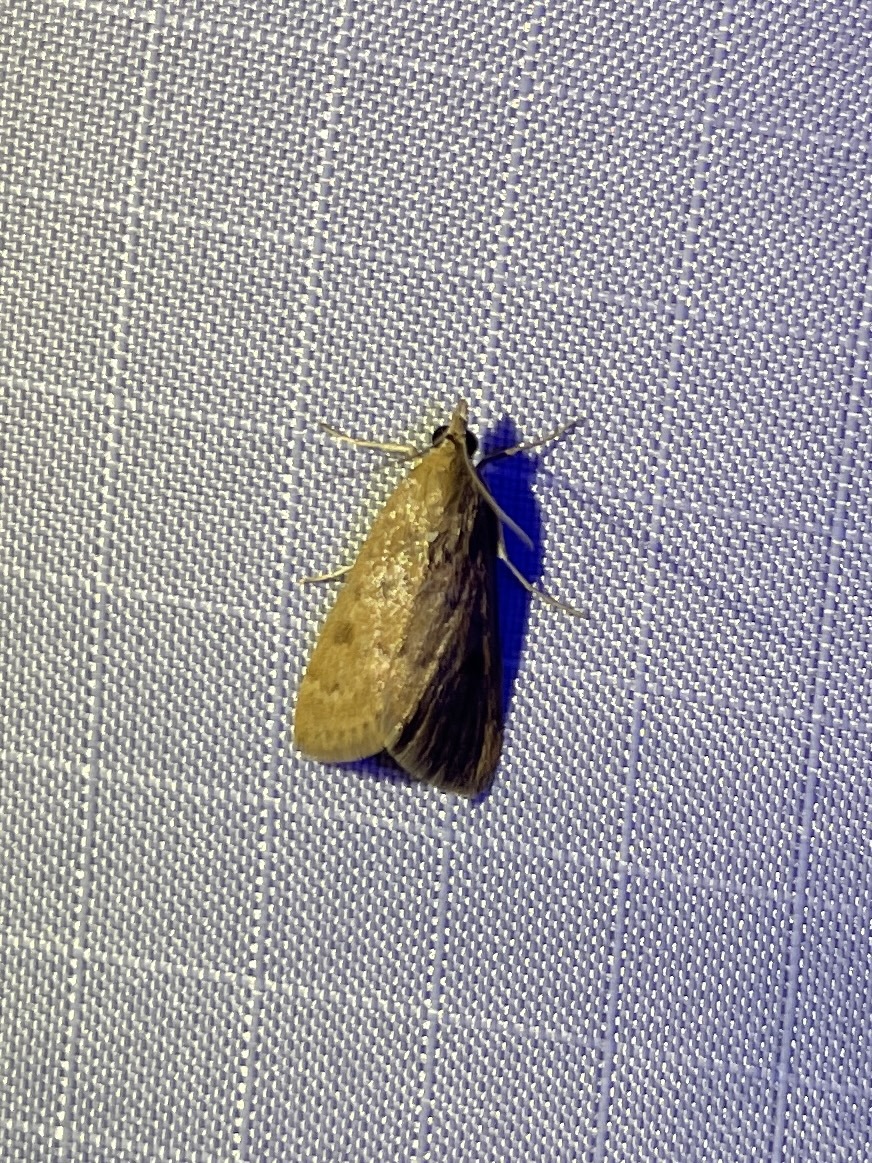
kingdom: Animalia
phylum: Arthropoda
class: Insecta
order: Lepidoptera
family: Crambidae
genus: Achyra
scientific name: Achyra rantalis
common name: Garden webworm
